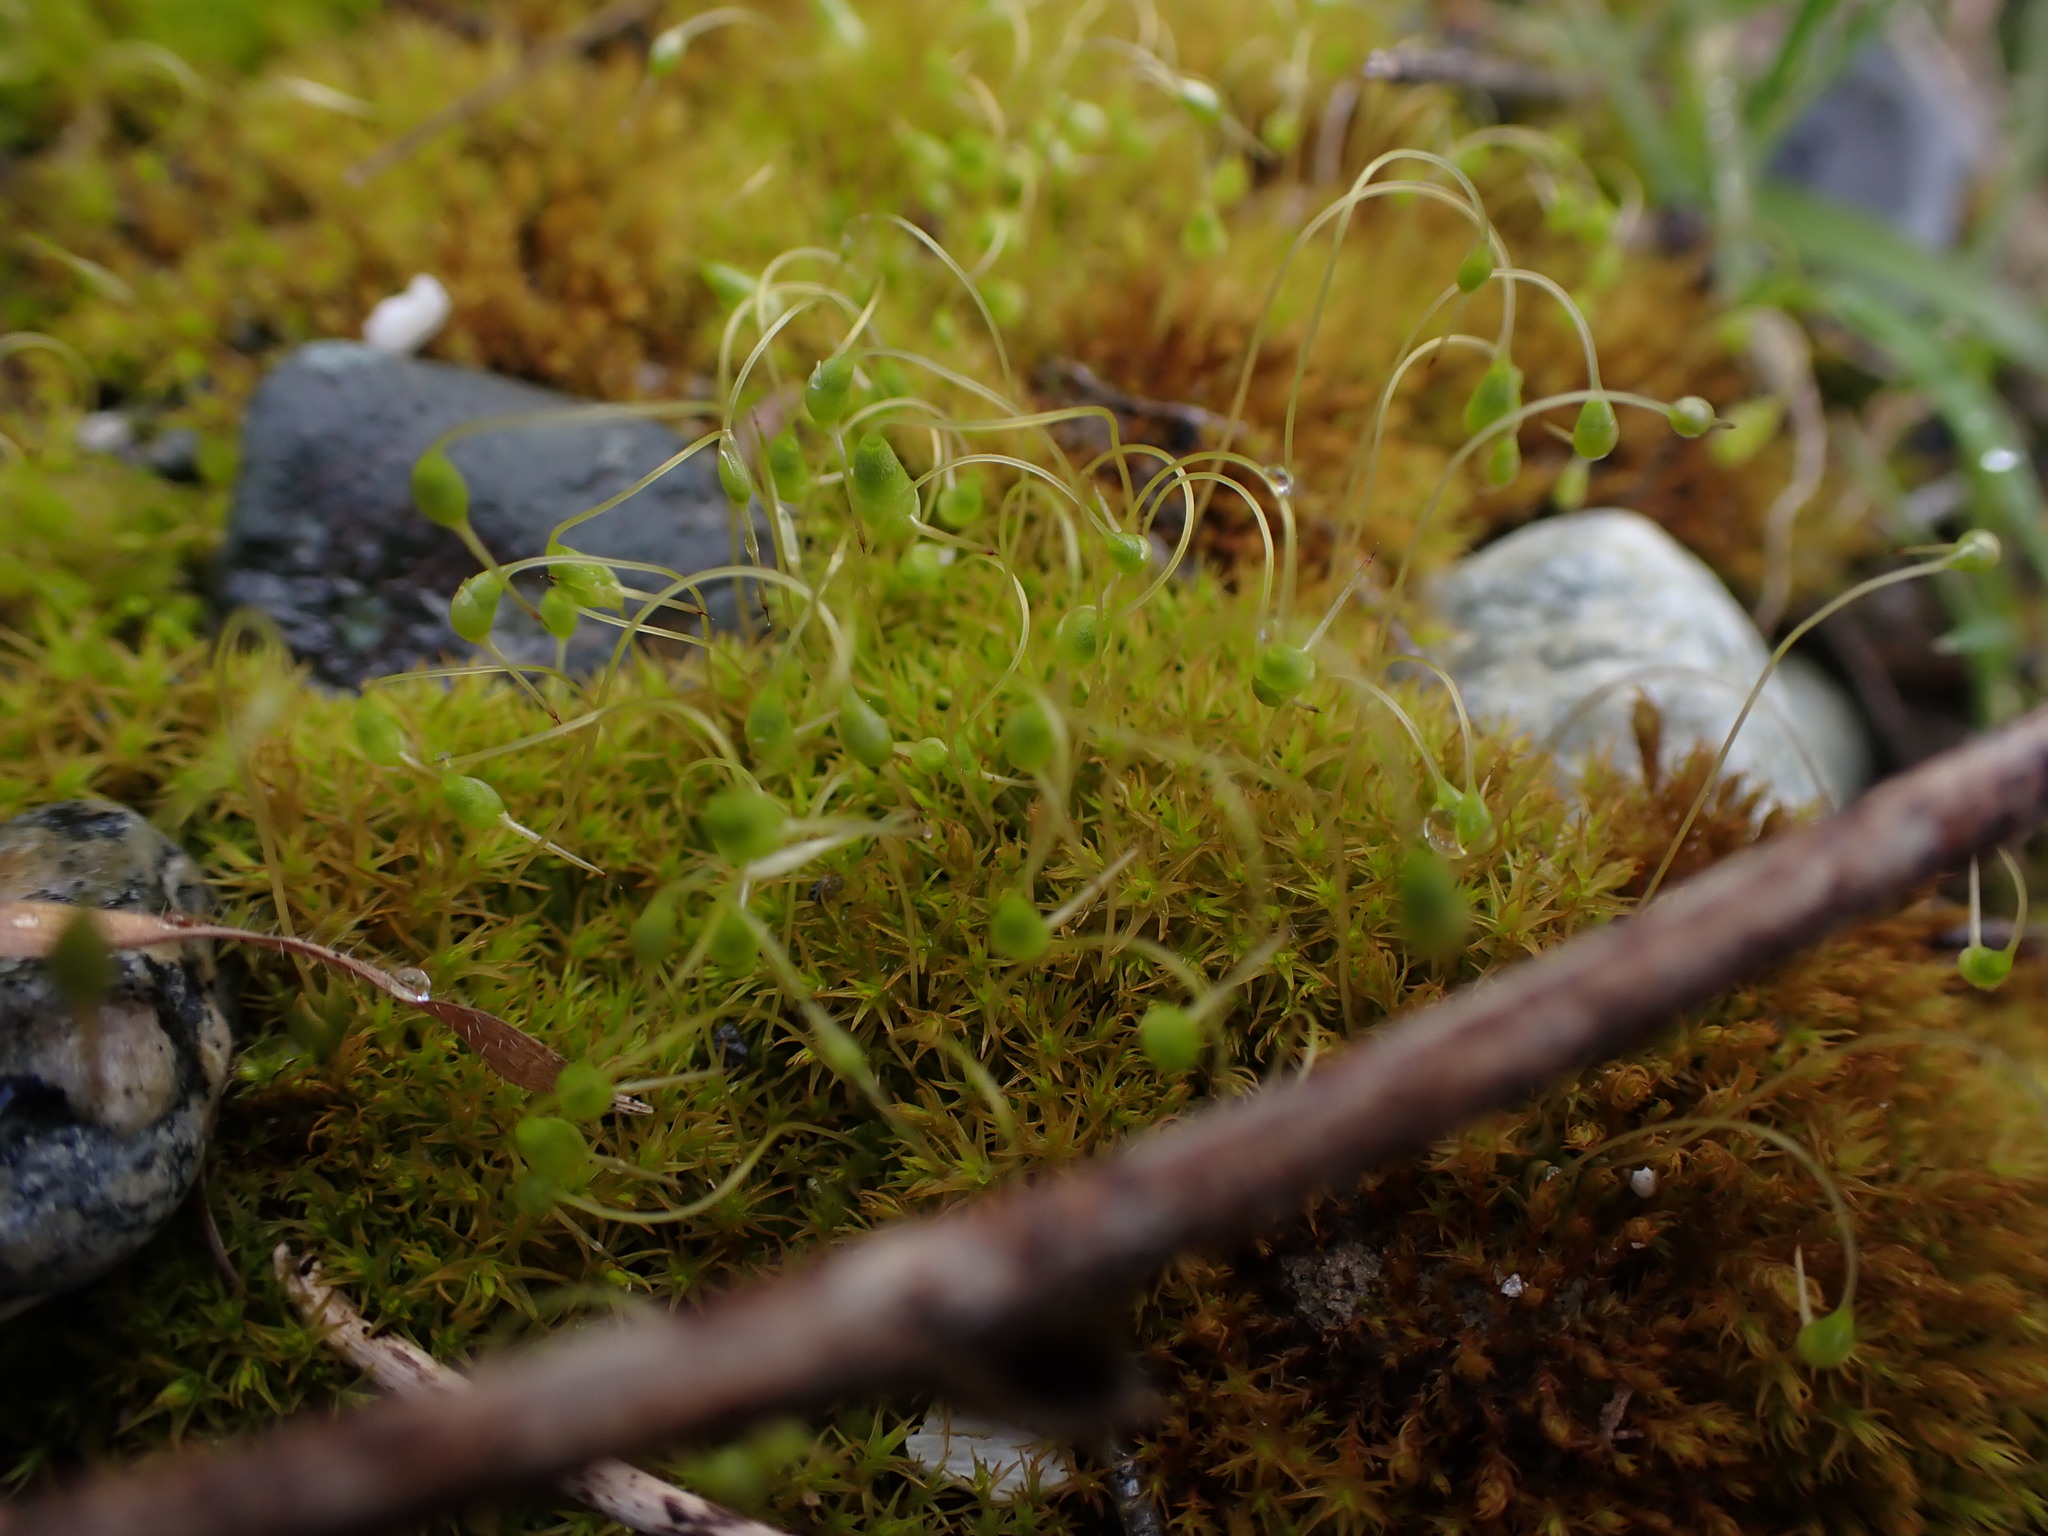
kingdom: Plantae
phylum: Bryophyta
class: Bryopsida
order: Funariales
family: Funariaceae
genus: Funaria
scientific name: Funaria hygrometrica
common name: Common cord moss
